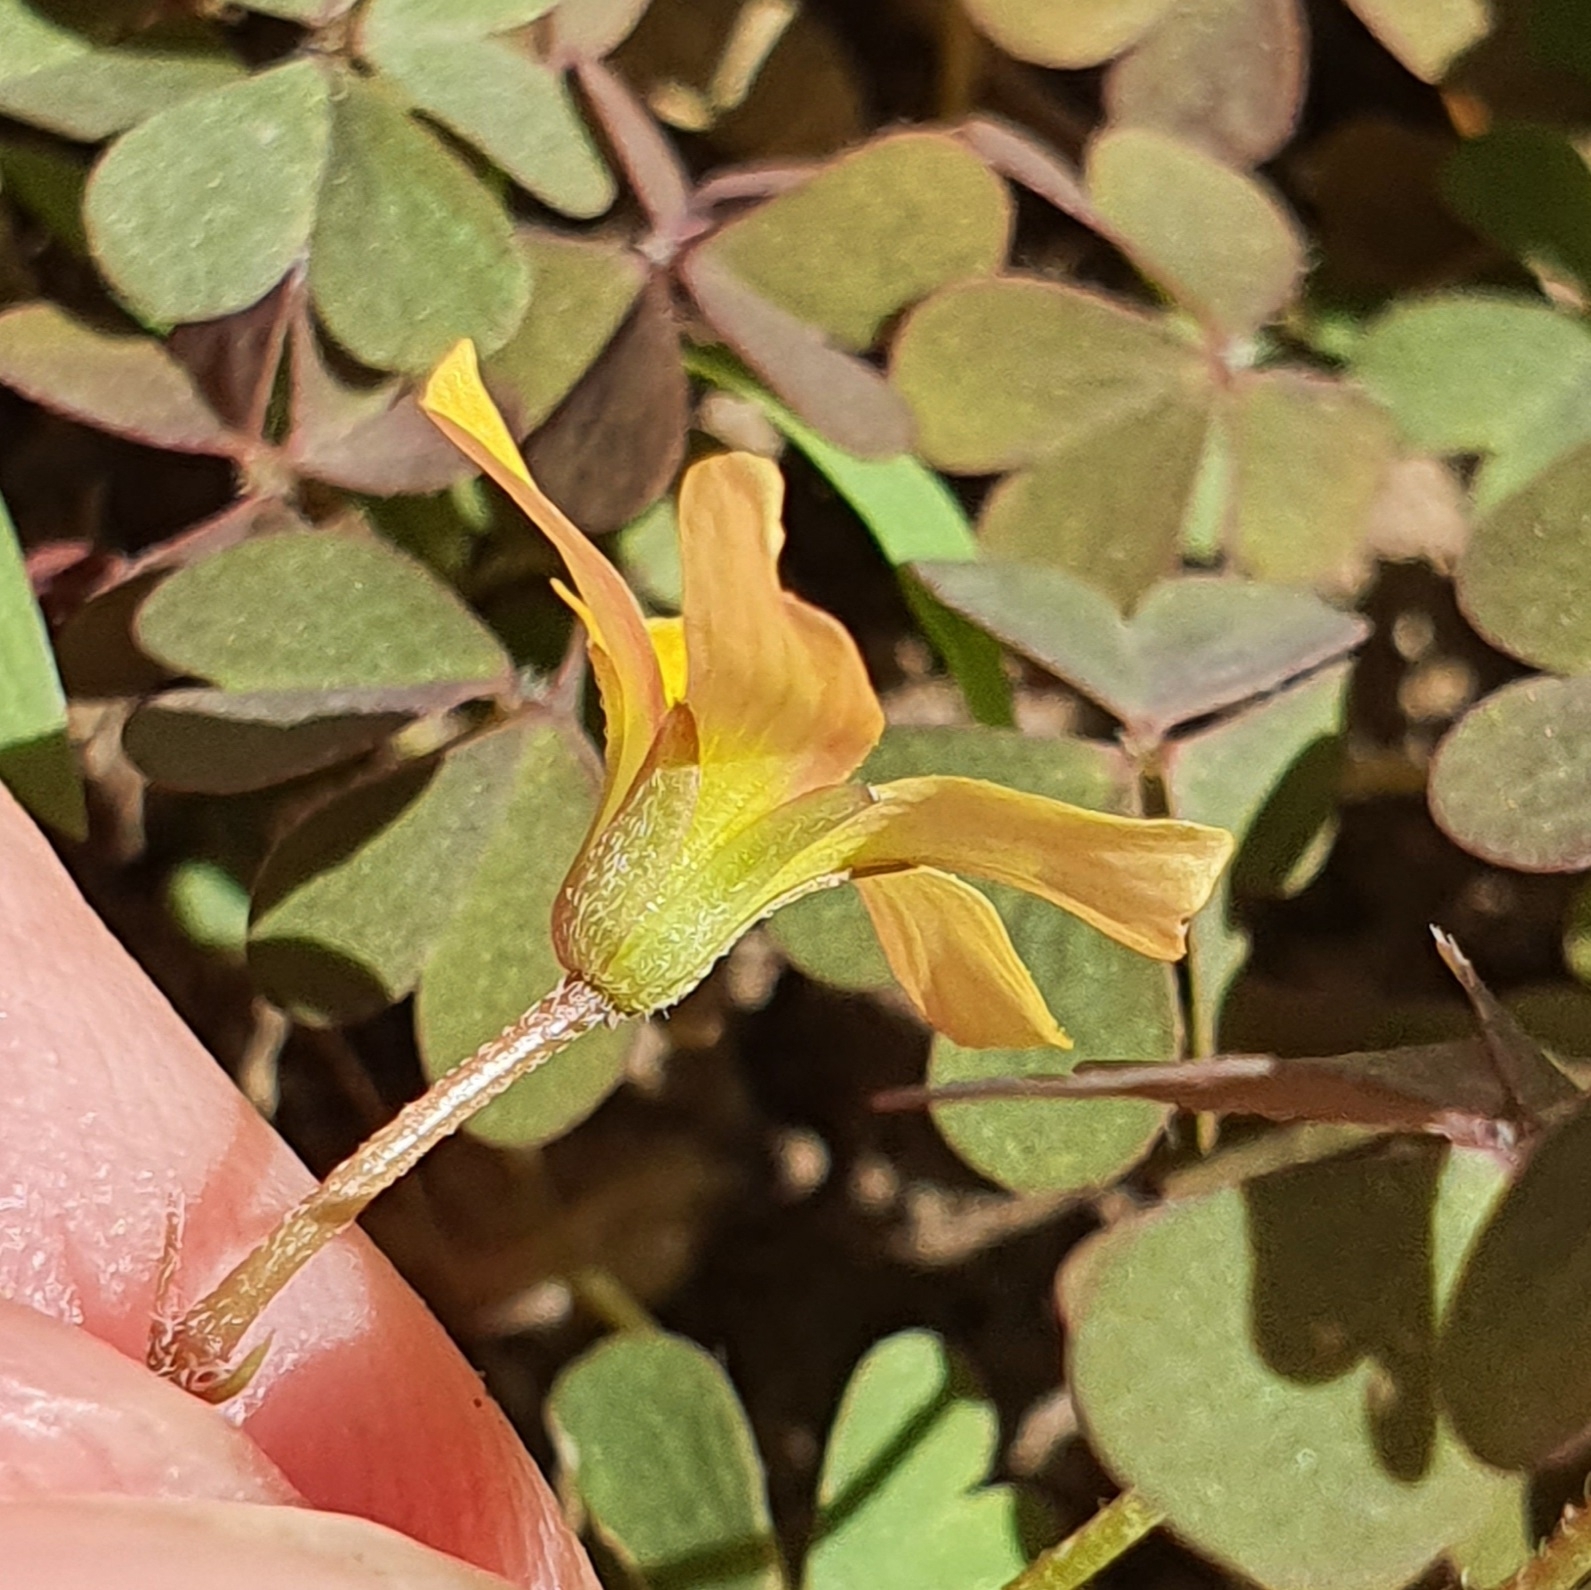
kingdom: Plantae
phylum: Tracheophyta
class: Magnoliopsida
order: Oxalidales
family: Oxalidaceae
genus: Oxalis
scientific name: Oxalis corniculata
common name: Procumbent yellow-sorrel
